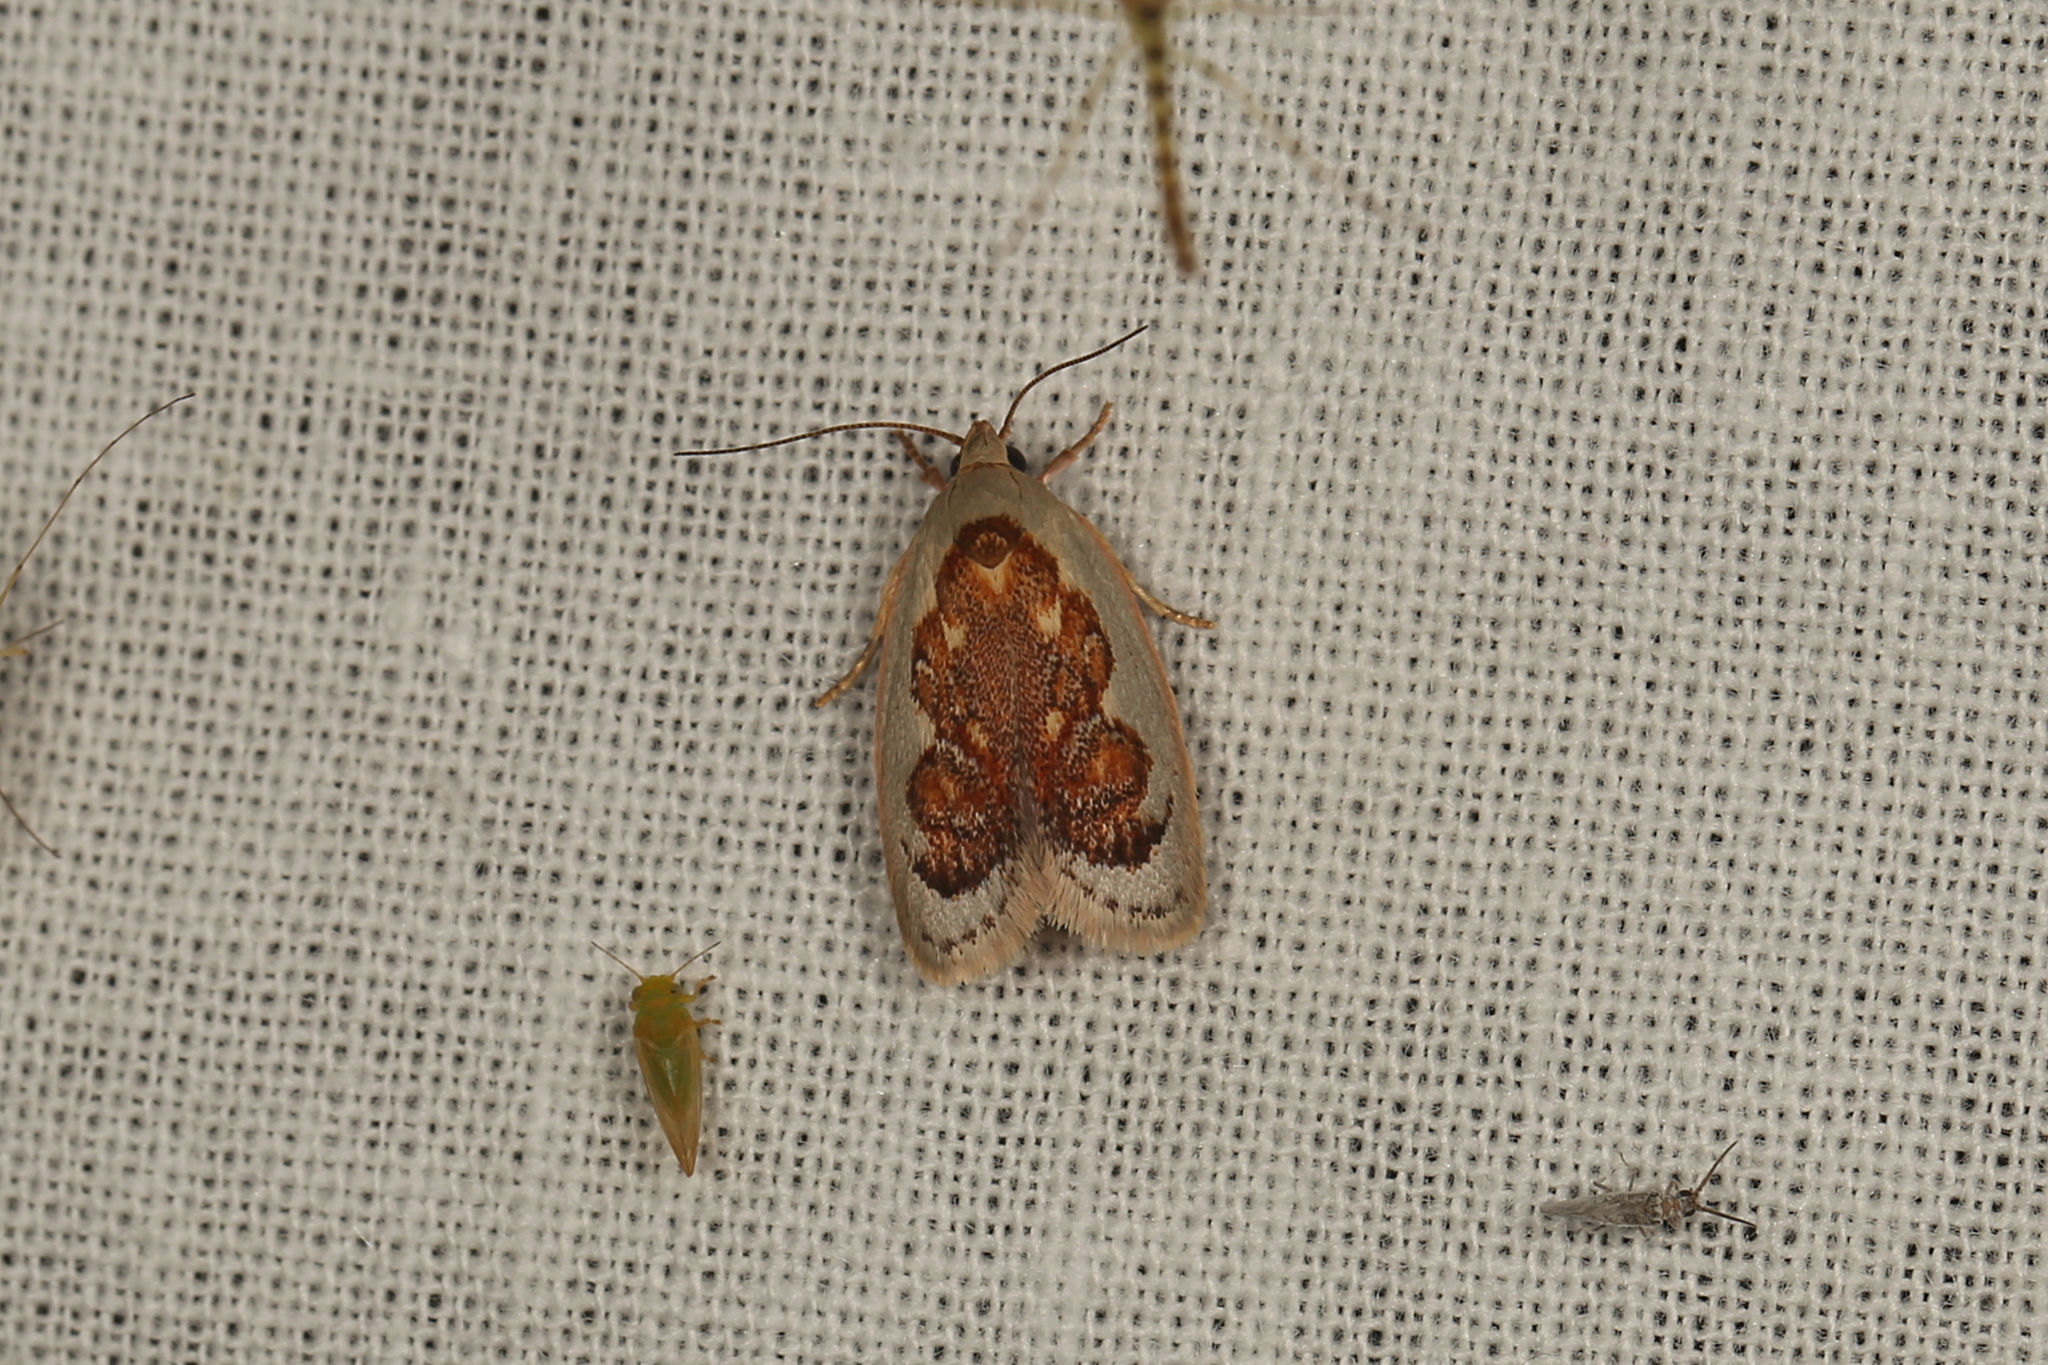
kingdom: Animalia
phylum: Arthropoda
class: Insecta
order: Lepidoptera
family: Oecophoridae
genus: Garrha
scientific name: Garrha idiosema
